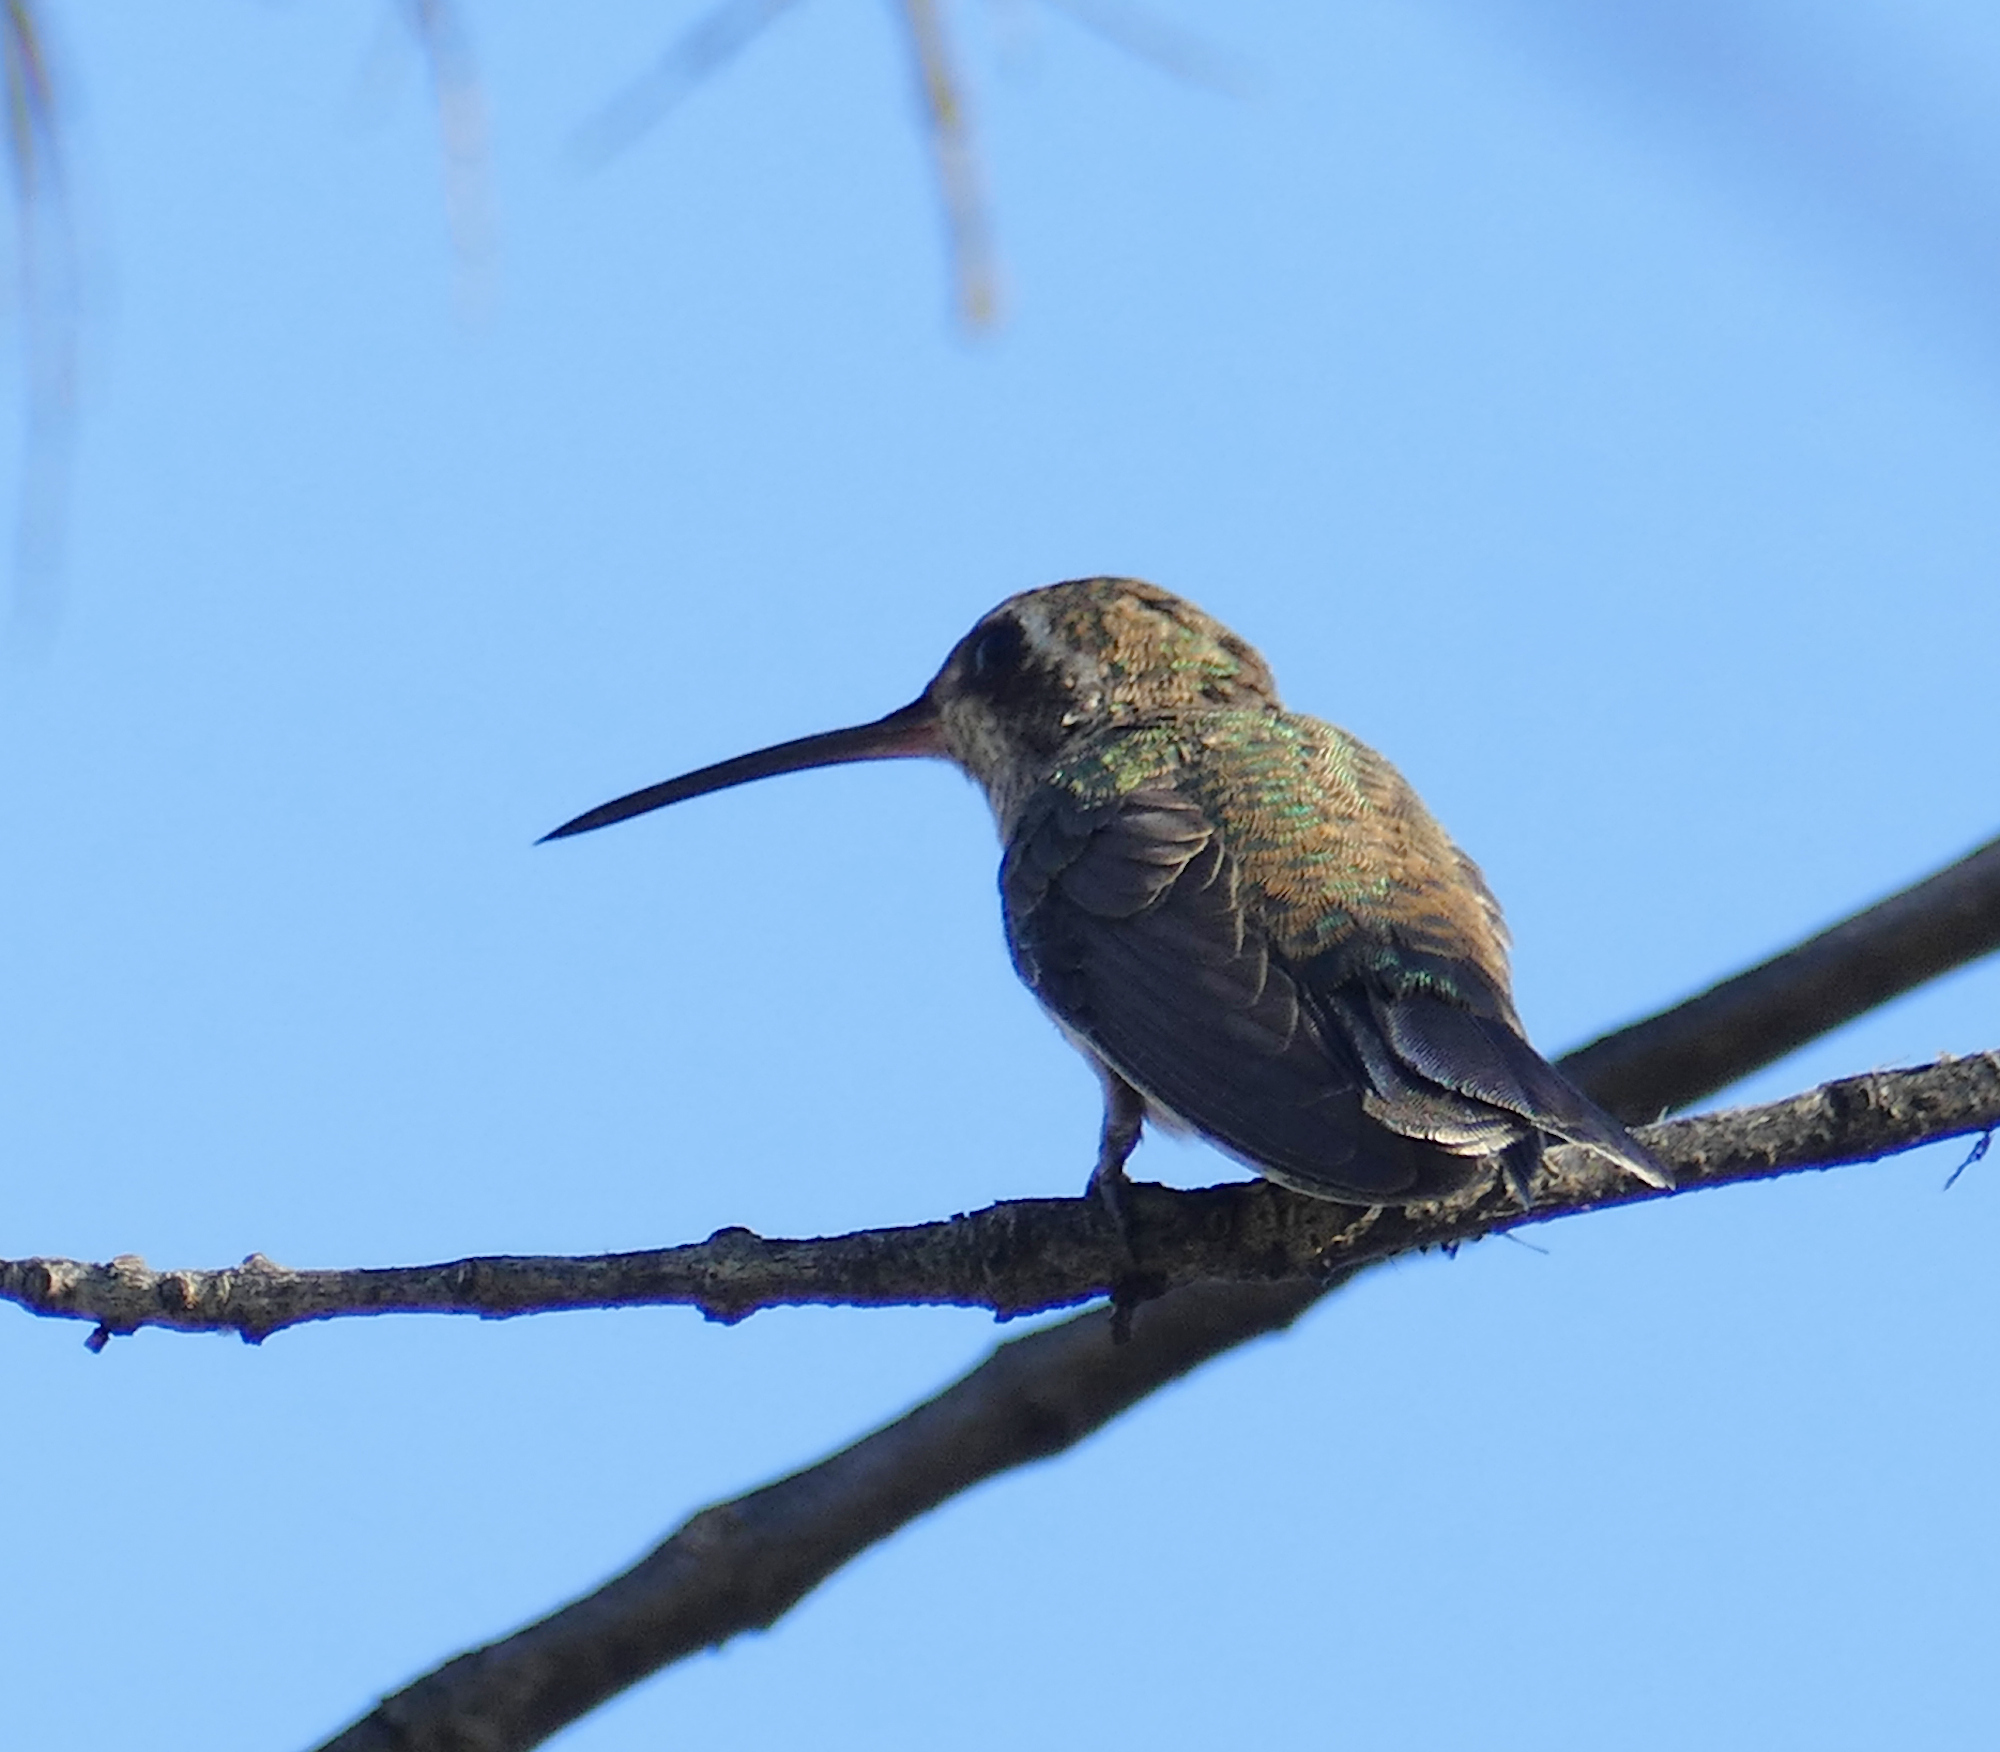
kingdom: Animalia
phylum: Chordata
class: Aves
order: Apodiformes
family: Trochilidae
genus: Cynanthus
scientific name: Cynanthus latirostris
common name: Broad-billed hummingbird
